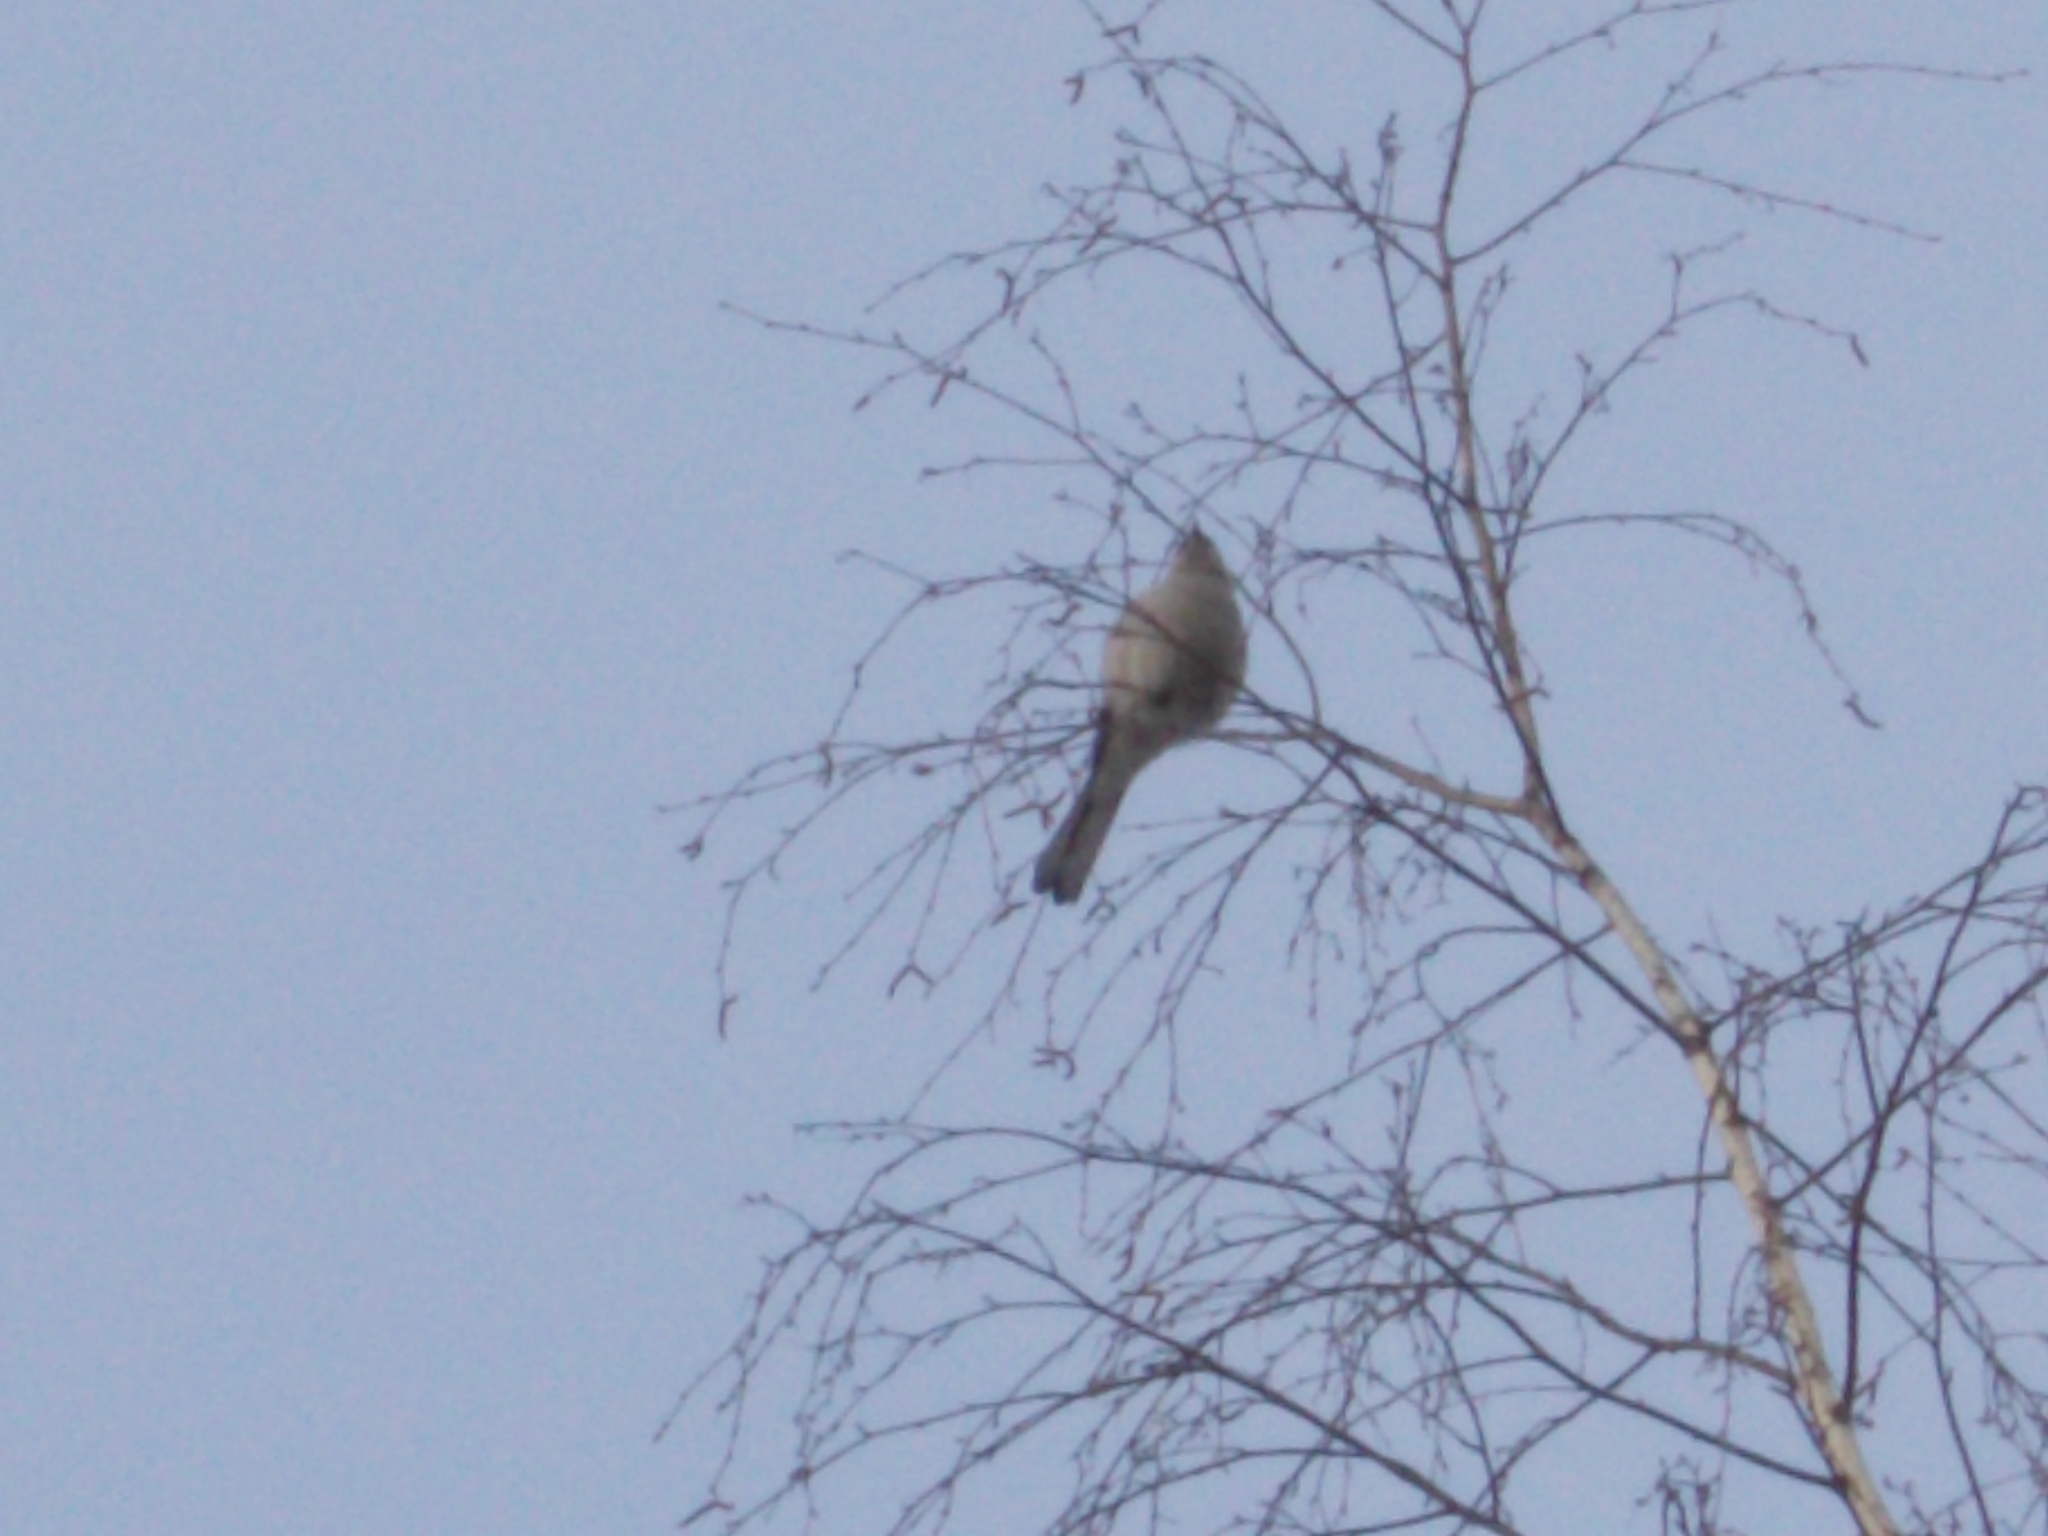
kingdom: Animalia
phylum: Chordata
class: Aves
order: Passeriformes
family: Laniidae
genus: Lanius
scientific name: Lanius borealis
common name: Northern shrike
